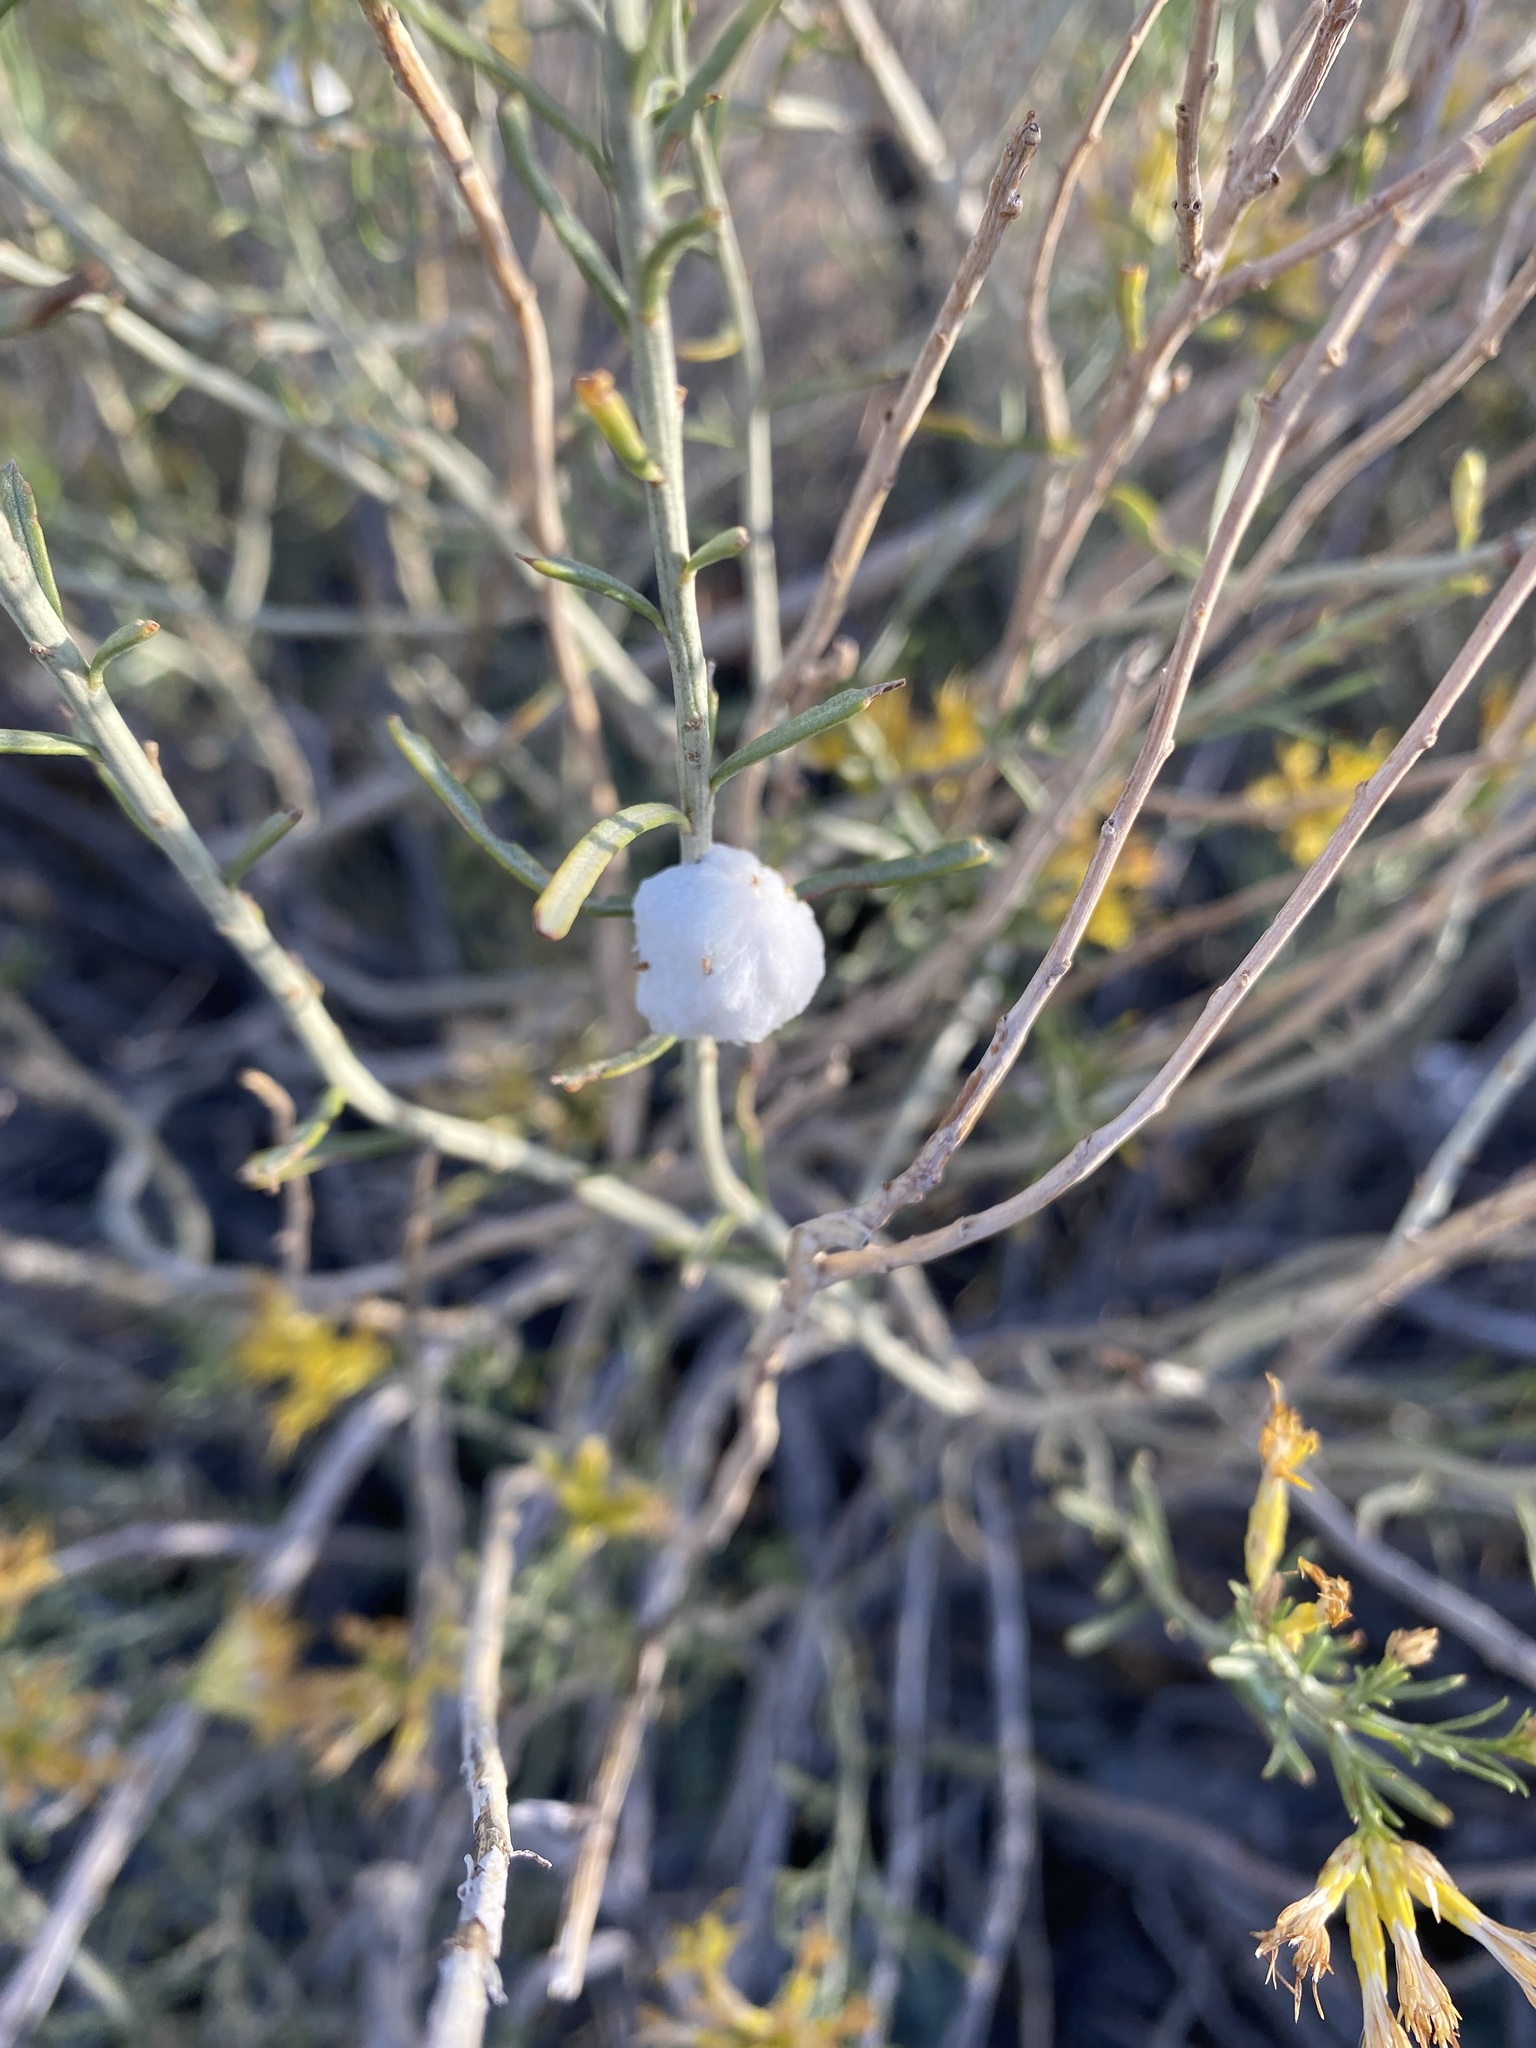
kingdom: Animalia
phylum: Arthropoda
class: Insecta
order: Diptera
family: Tephritidae
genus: Aciurina
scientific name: Aciurina bigeloviae
